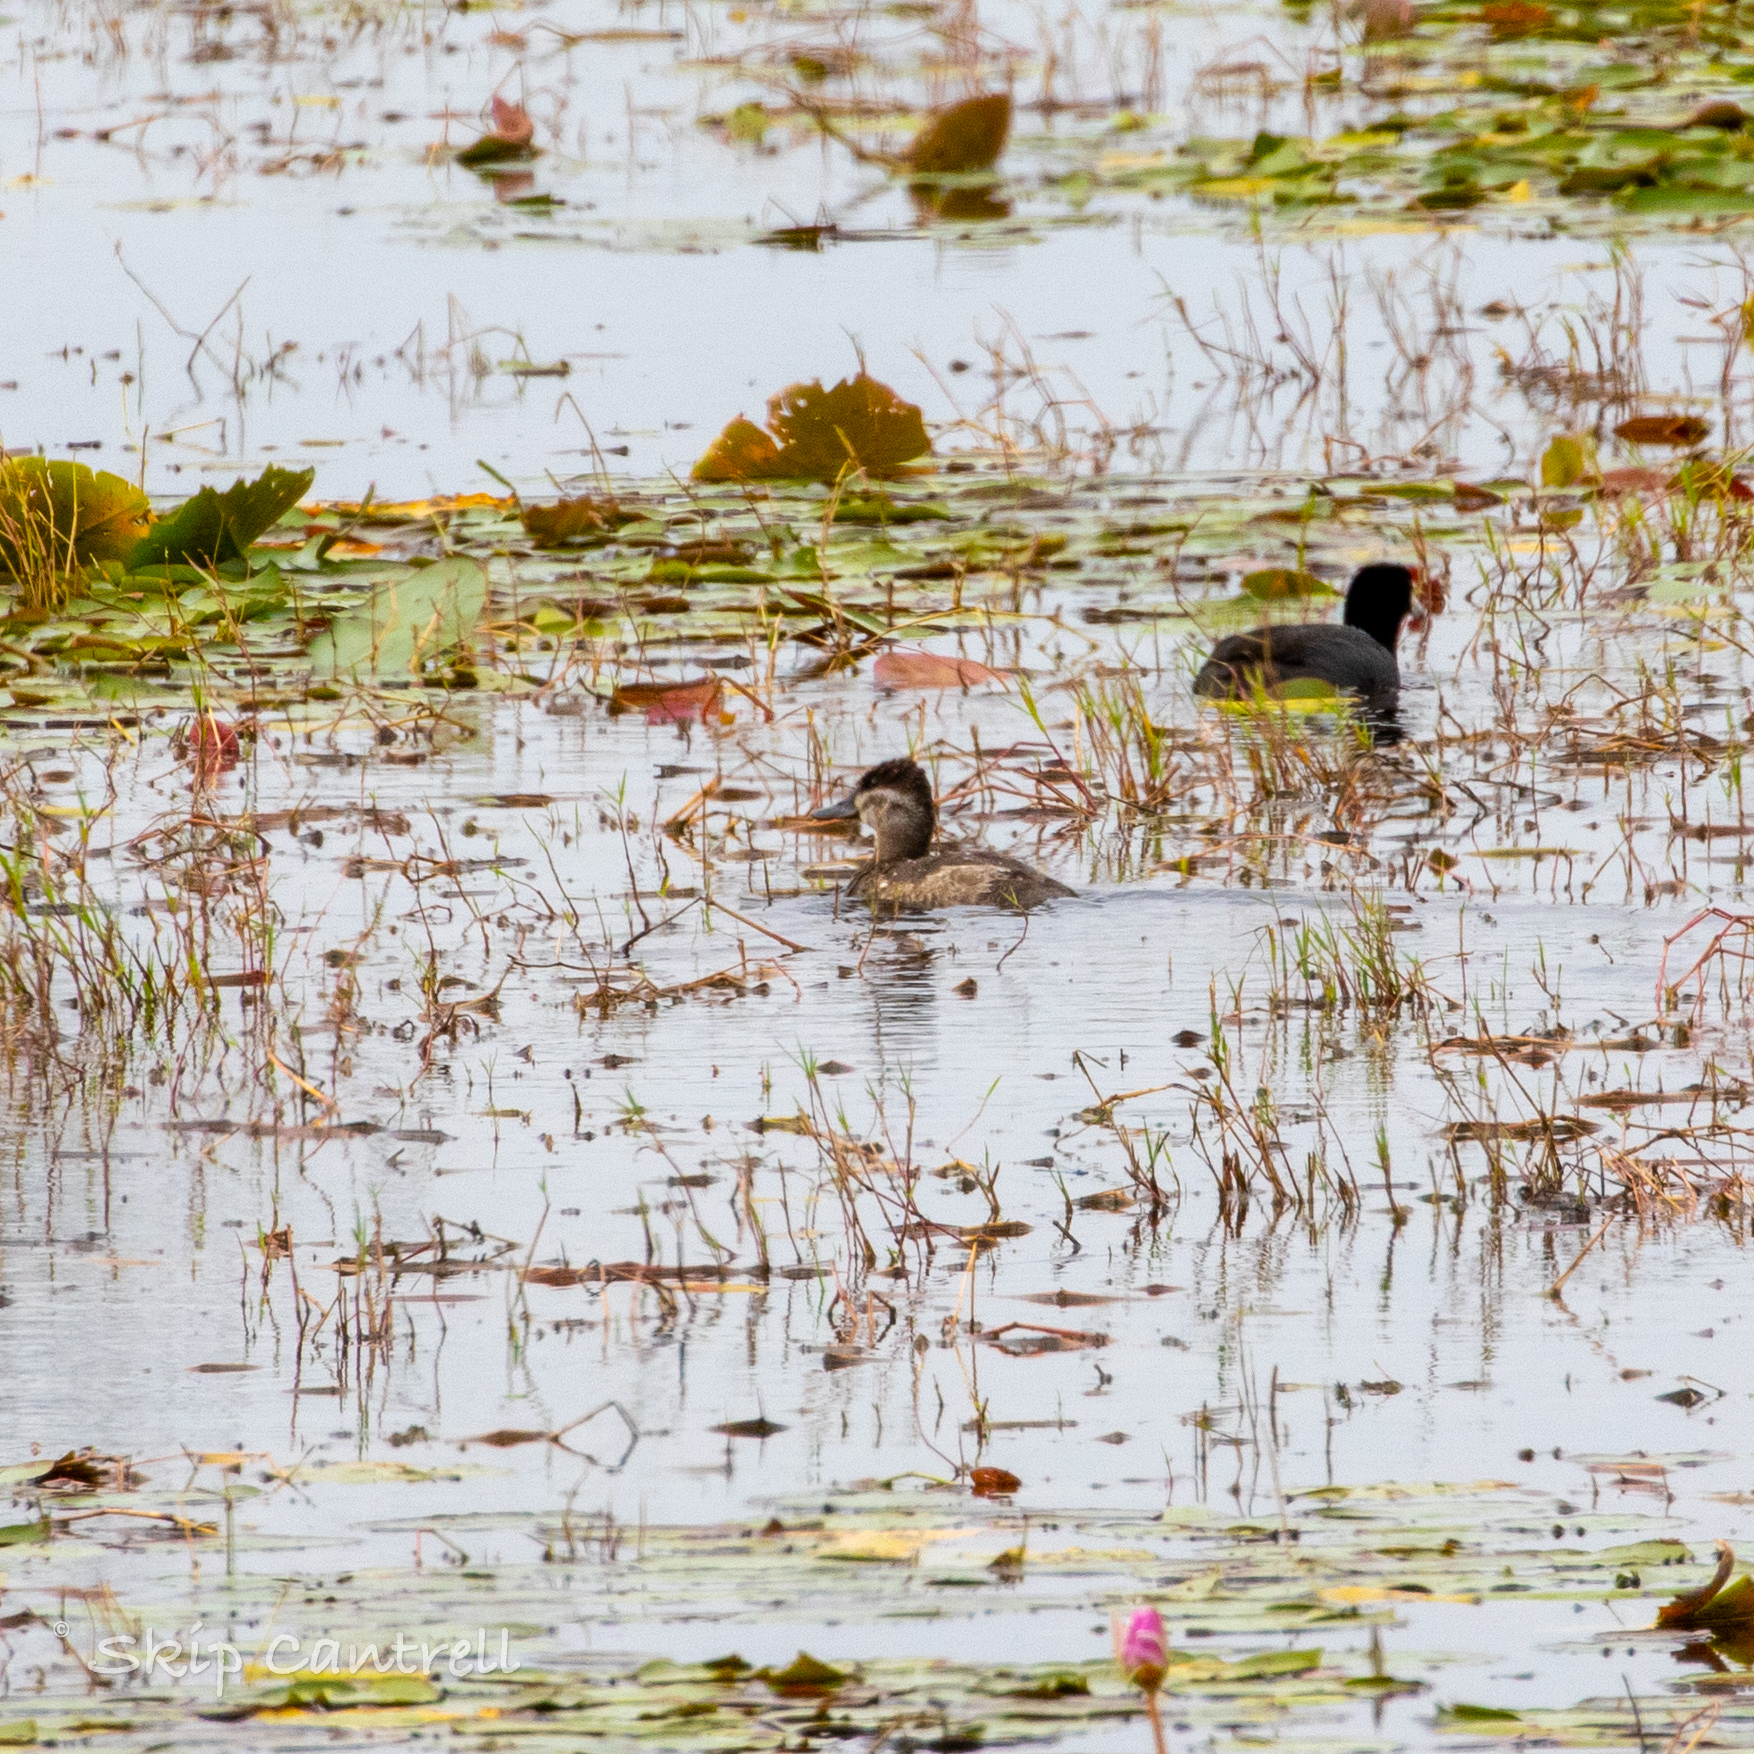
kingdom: Animalia
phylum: Chordata
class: Aves
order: Anseriformes
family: Anatidae
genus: Oxyura
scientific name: Oxyura jamaicensis
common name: Ruddy duck
